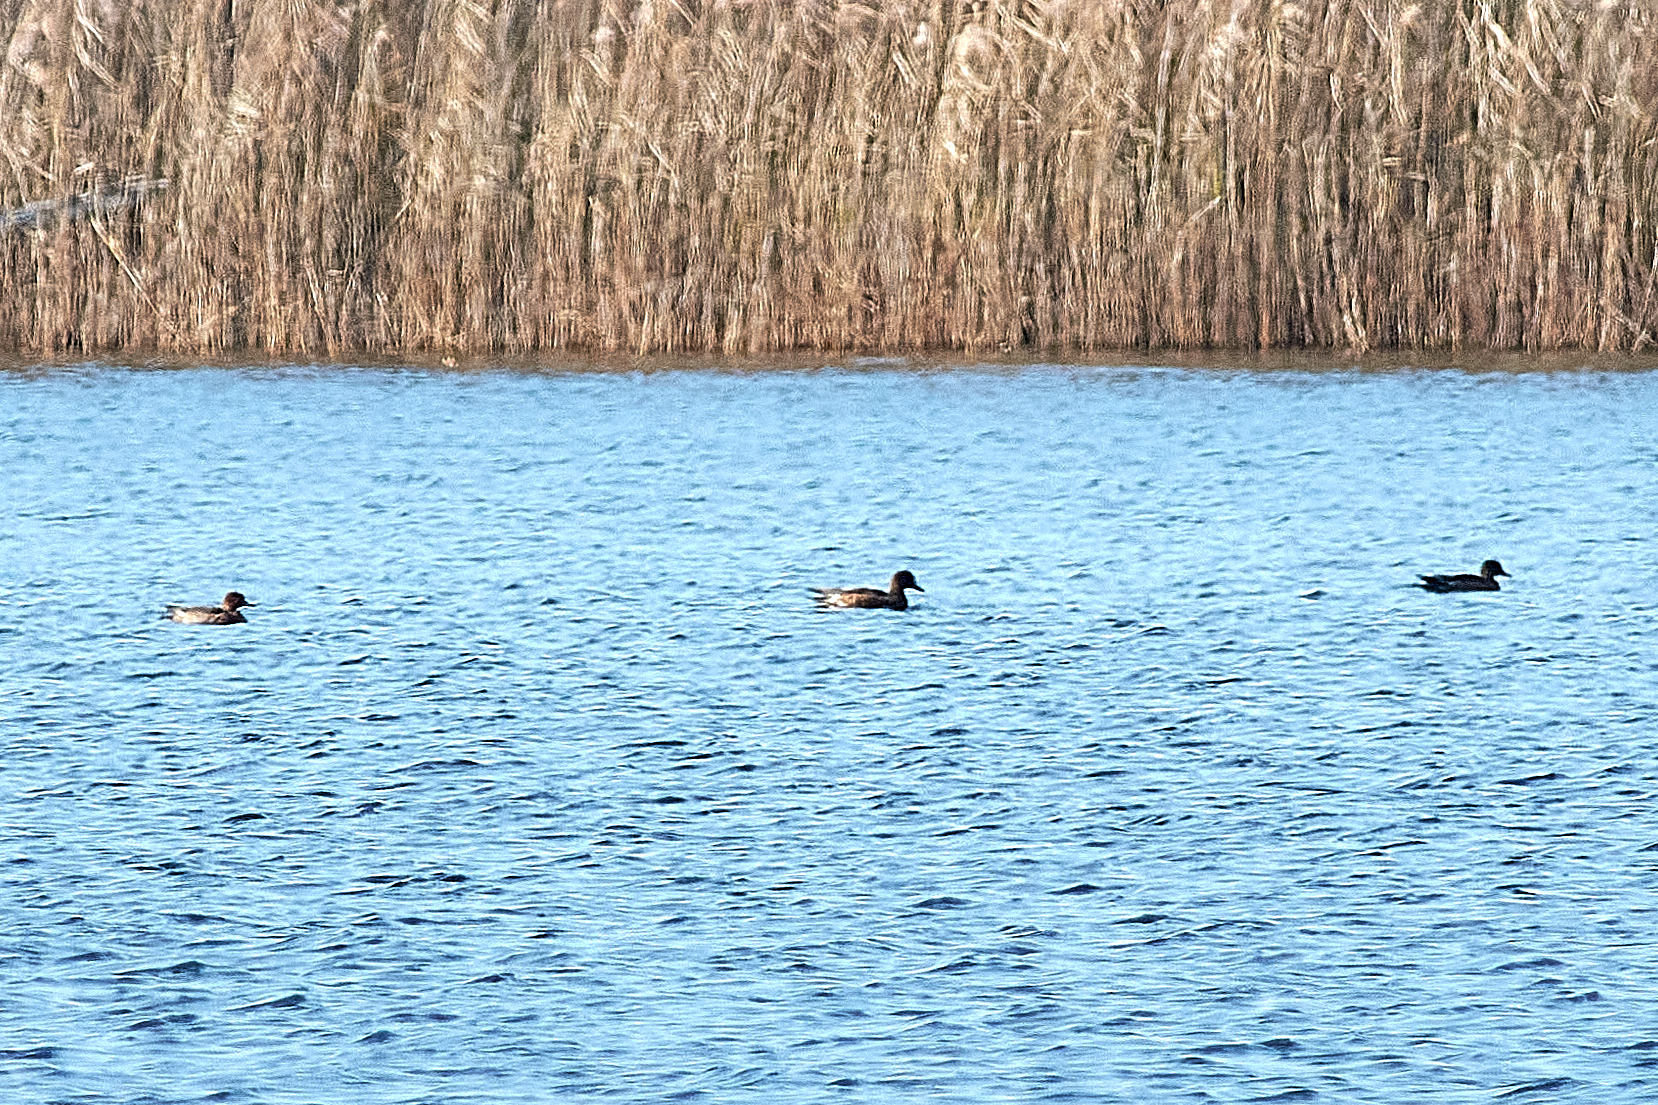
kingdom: Animalia
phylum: Chordata
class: Aves
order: Anseriformes
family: Anatidae
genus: Mareca
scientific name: Mareca penelope
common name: Eurasian wigeon
